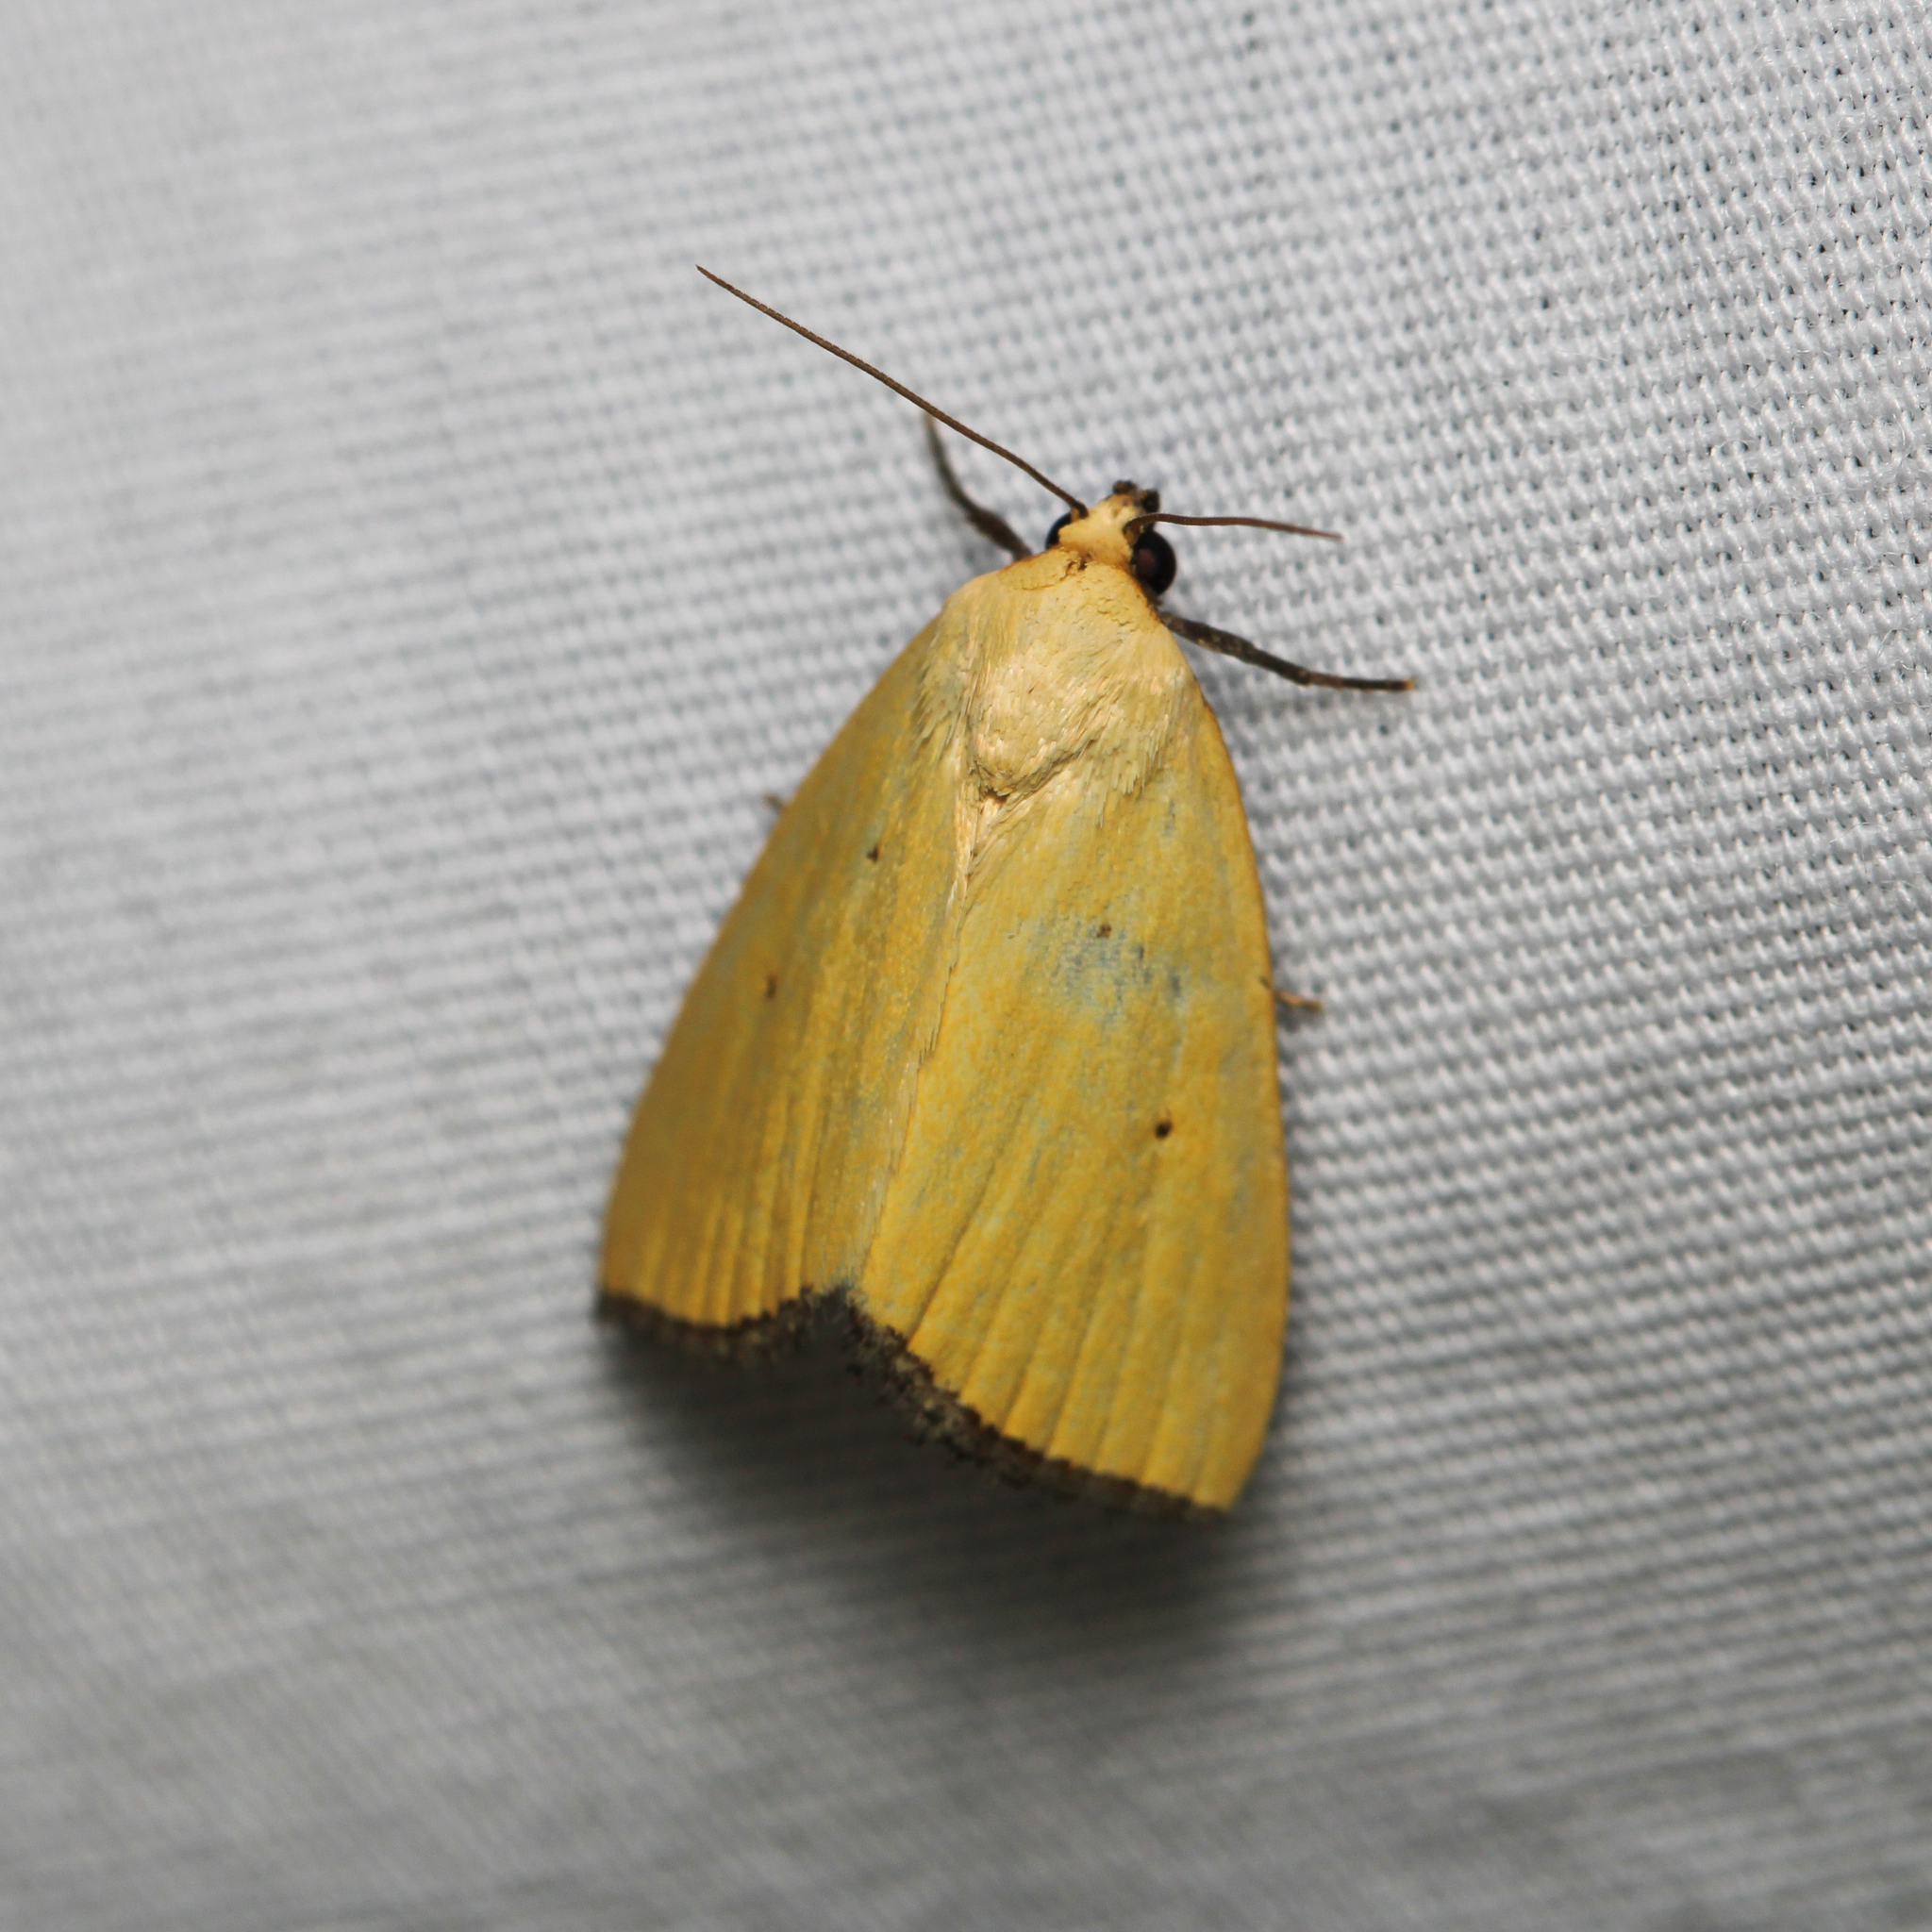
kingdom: Animalia
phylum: Arthropoda
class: Insecta
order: Lepidoptera
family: Noctuidae
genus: Marimatha
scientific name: Marimatha nigrofimbria
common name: Black-bordered lemon moth
